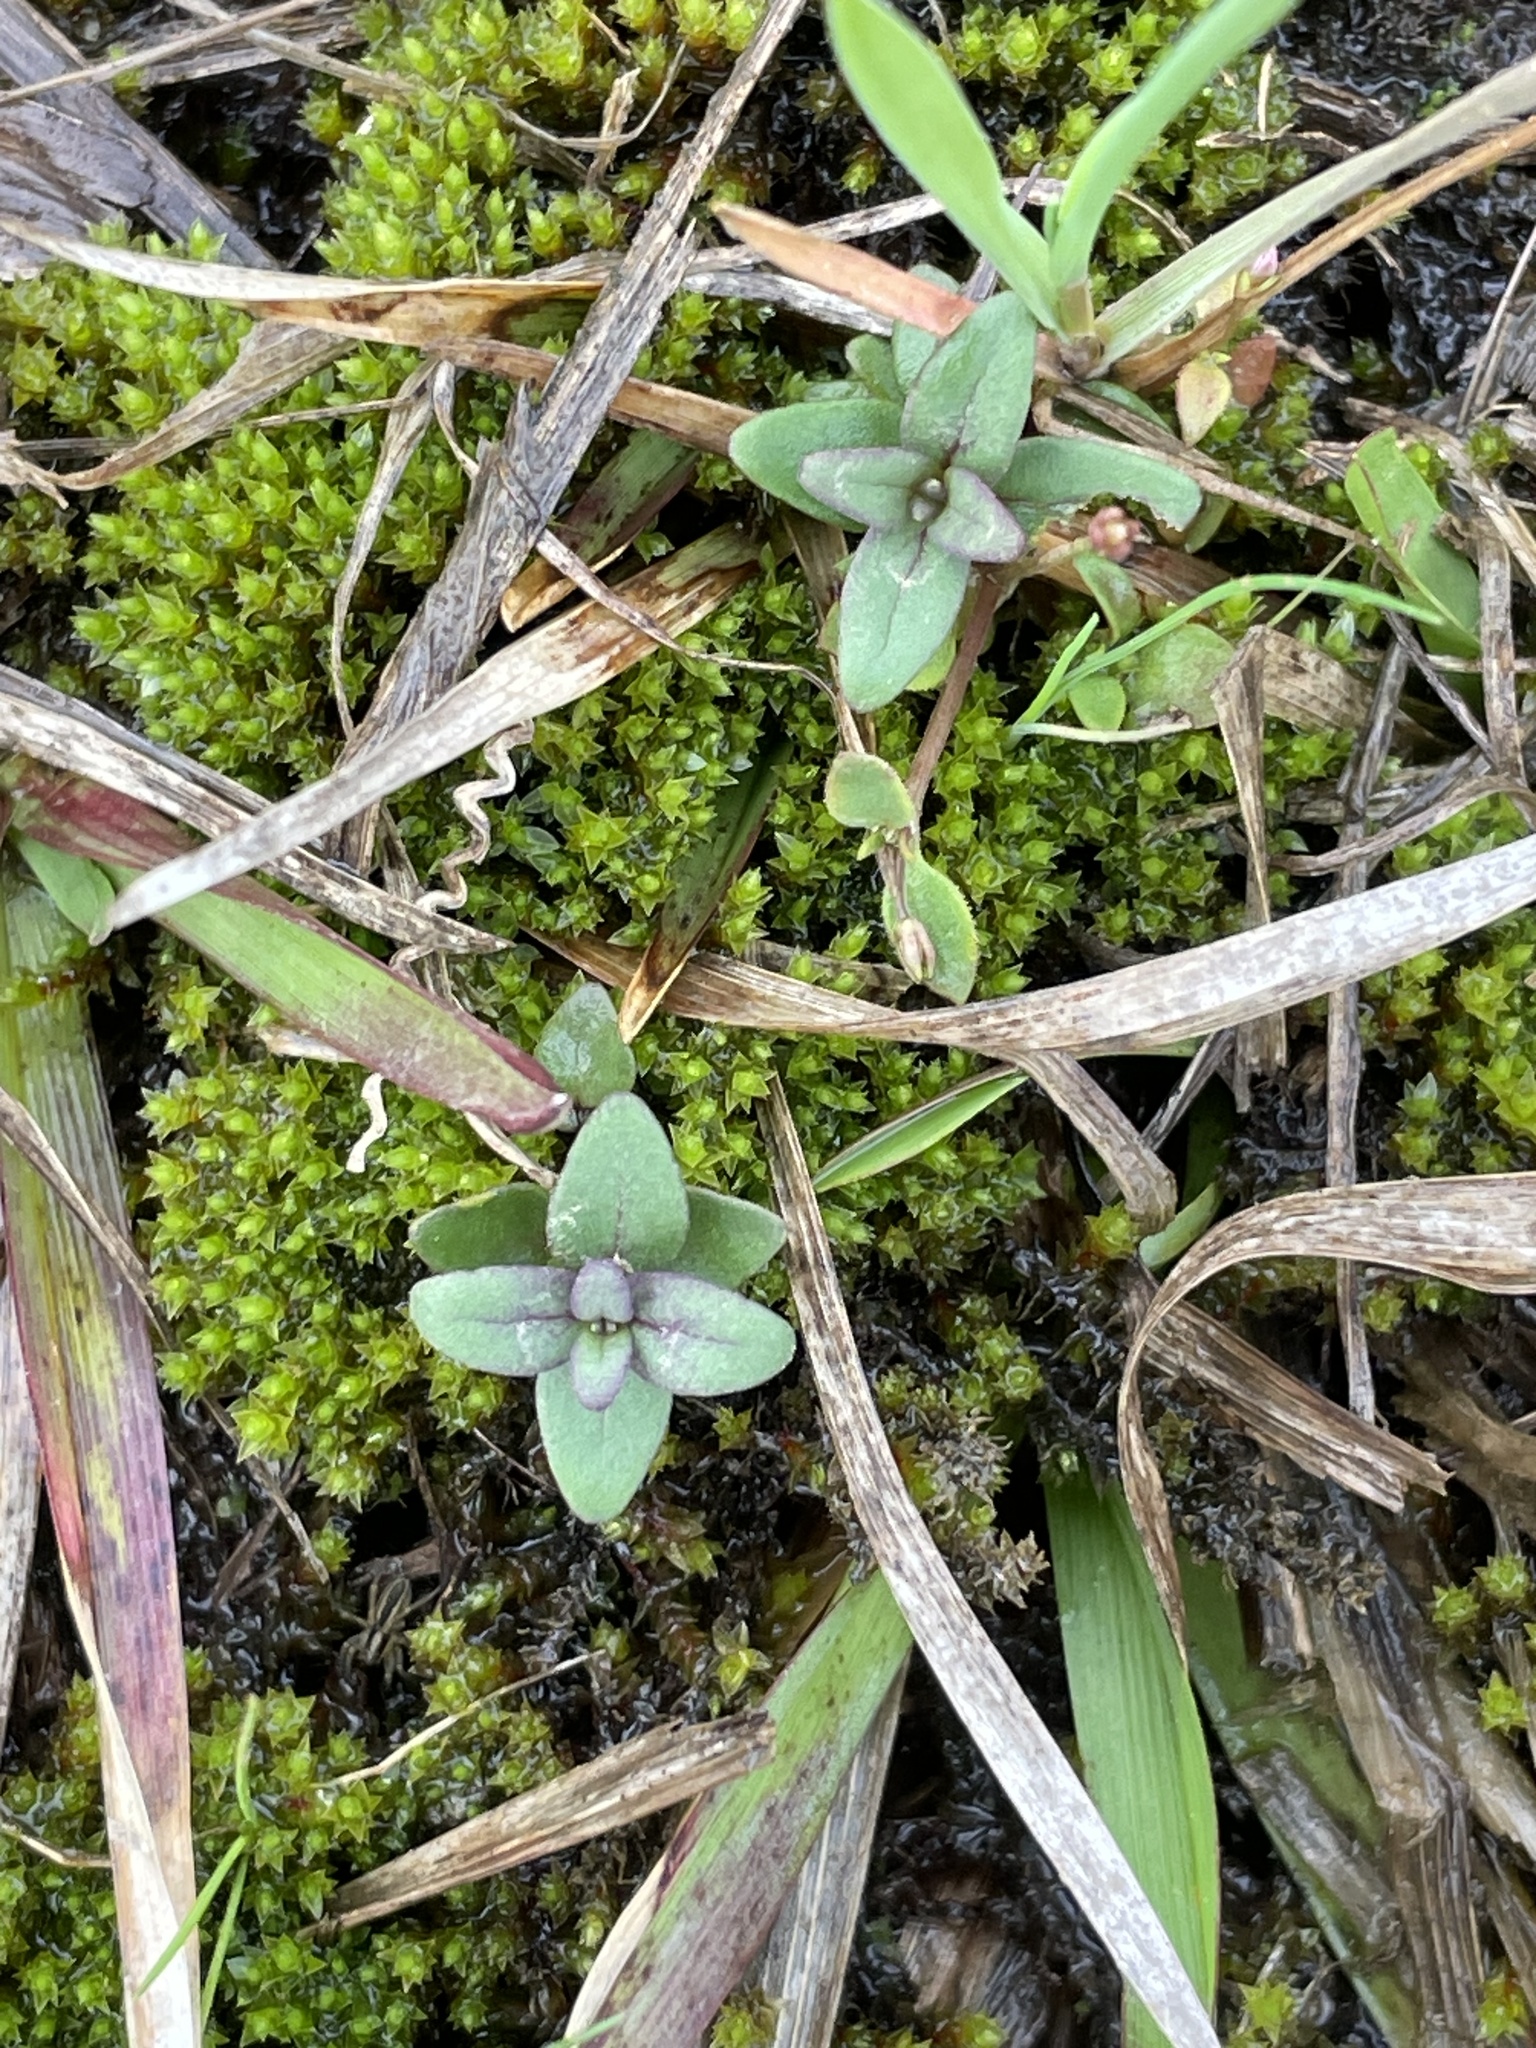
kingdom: Plantae
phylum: Tracheophyta
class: Magnoliopsida
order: Lamiales
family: Lamiaceae
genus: Scutellaria
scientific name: Scutellaria parvula
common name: Little scullcap
